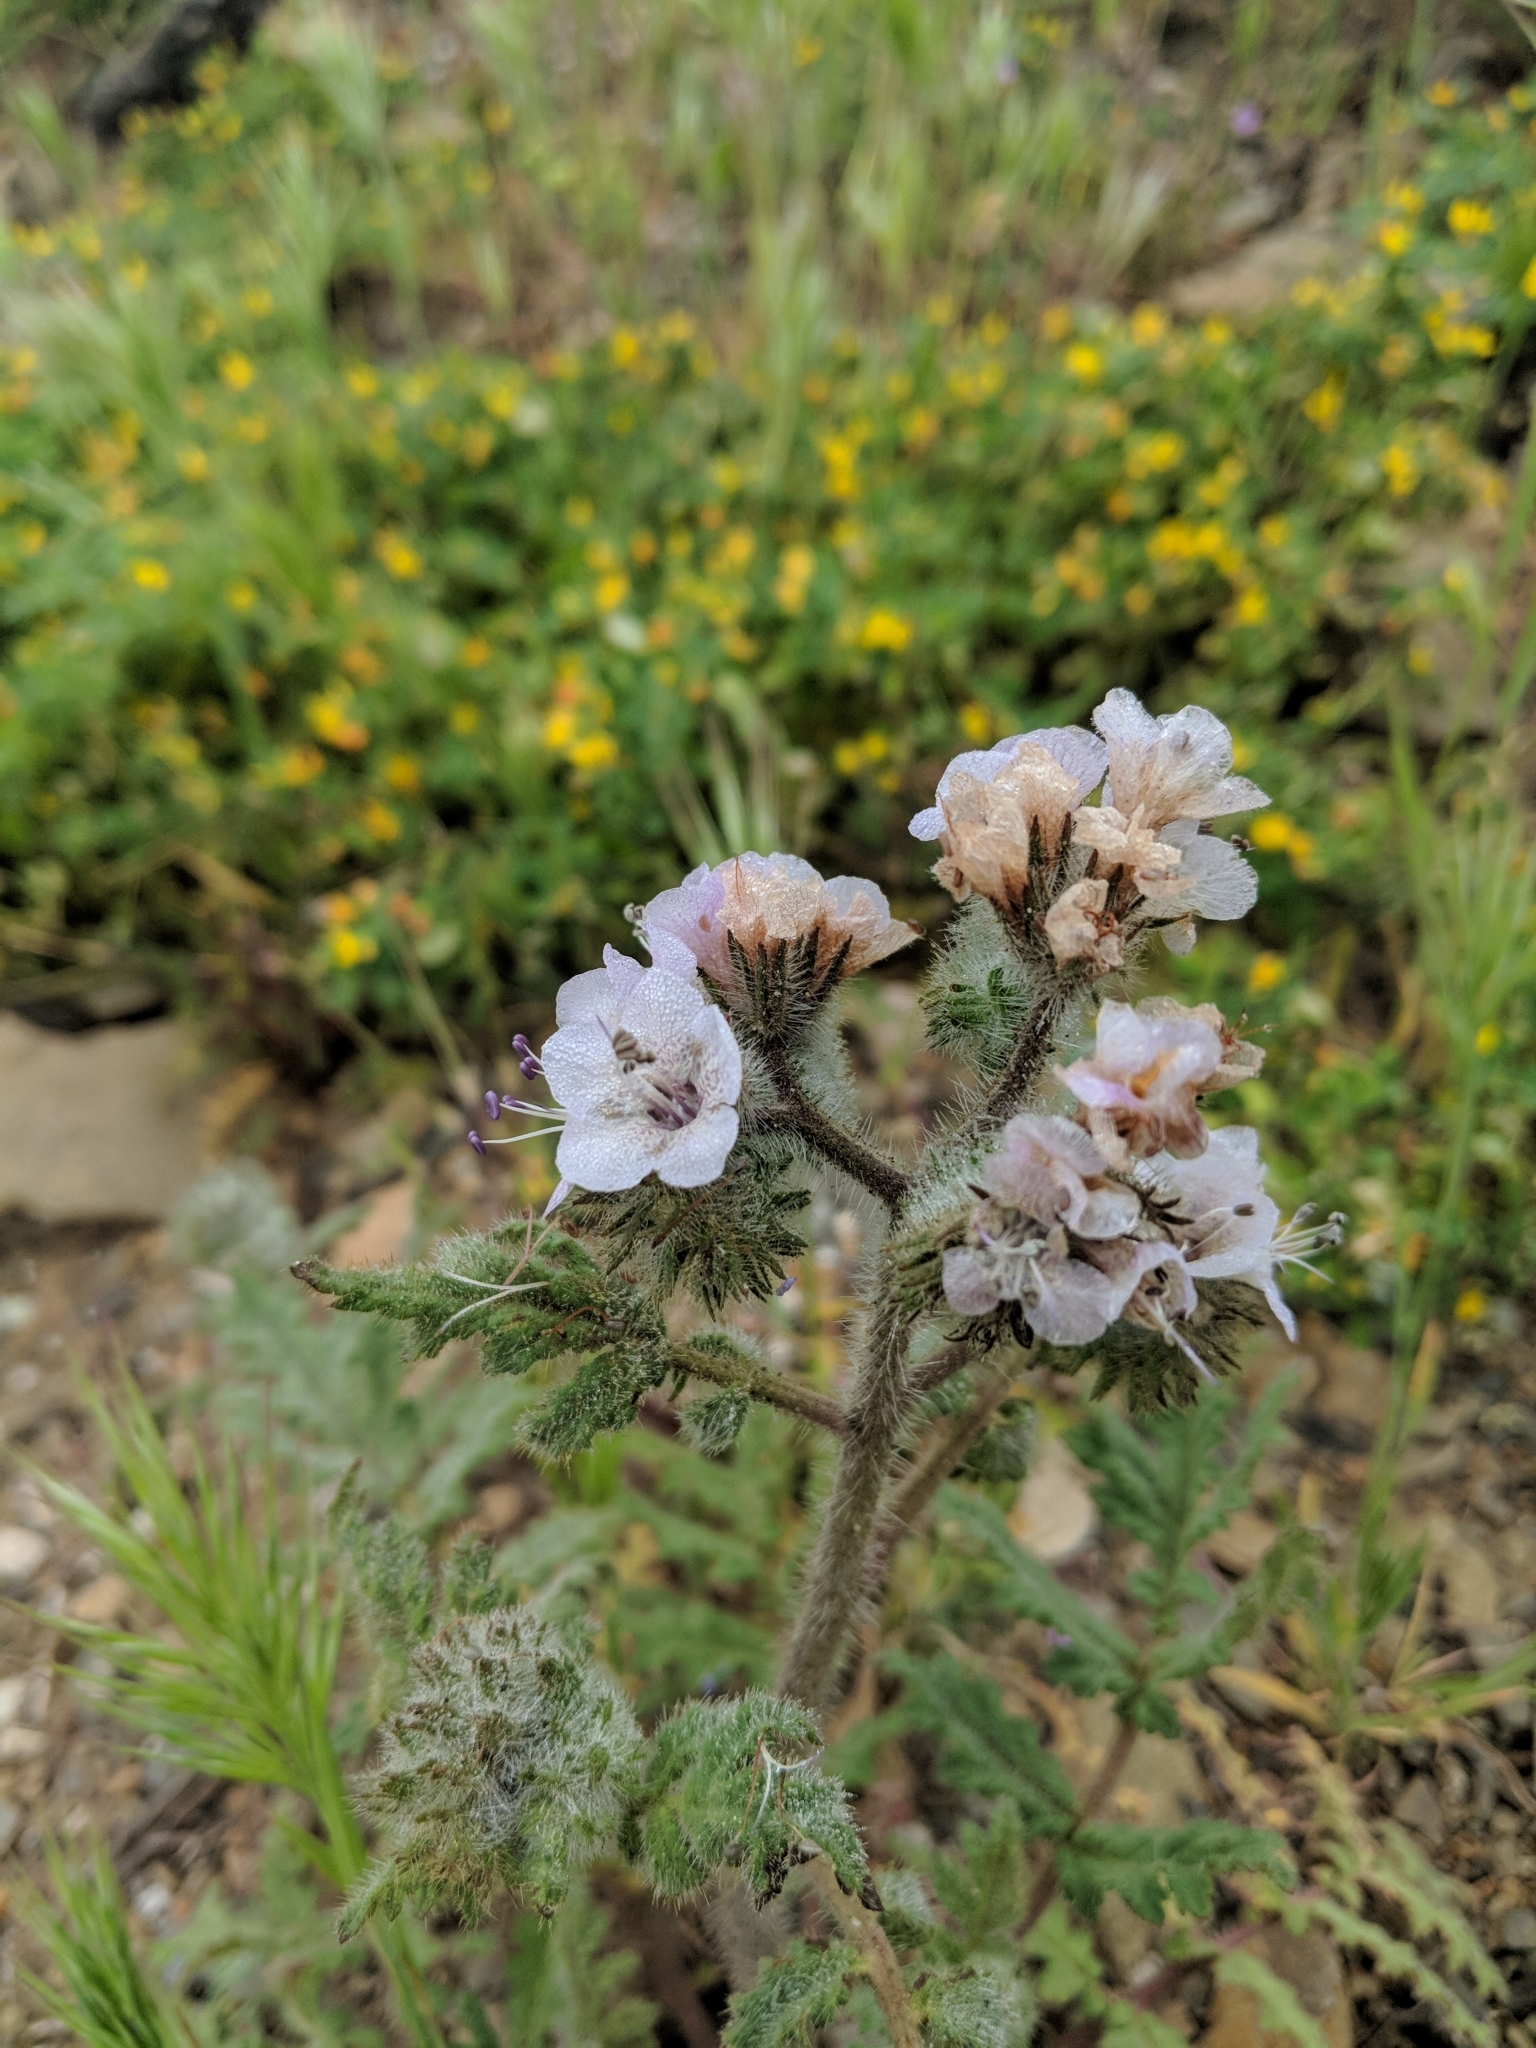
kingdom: Plantae
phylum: Tracheophyta
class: Magnoliopsida
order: Boraginales
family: Hydrophyllaceae
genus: Phacelia
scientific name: Phacelia cicutaria
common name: Caterpillar phacelia
